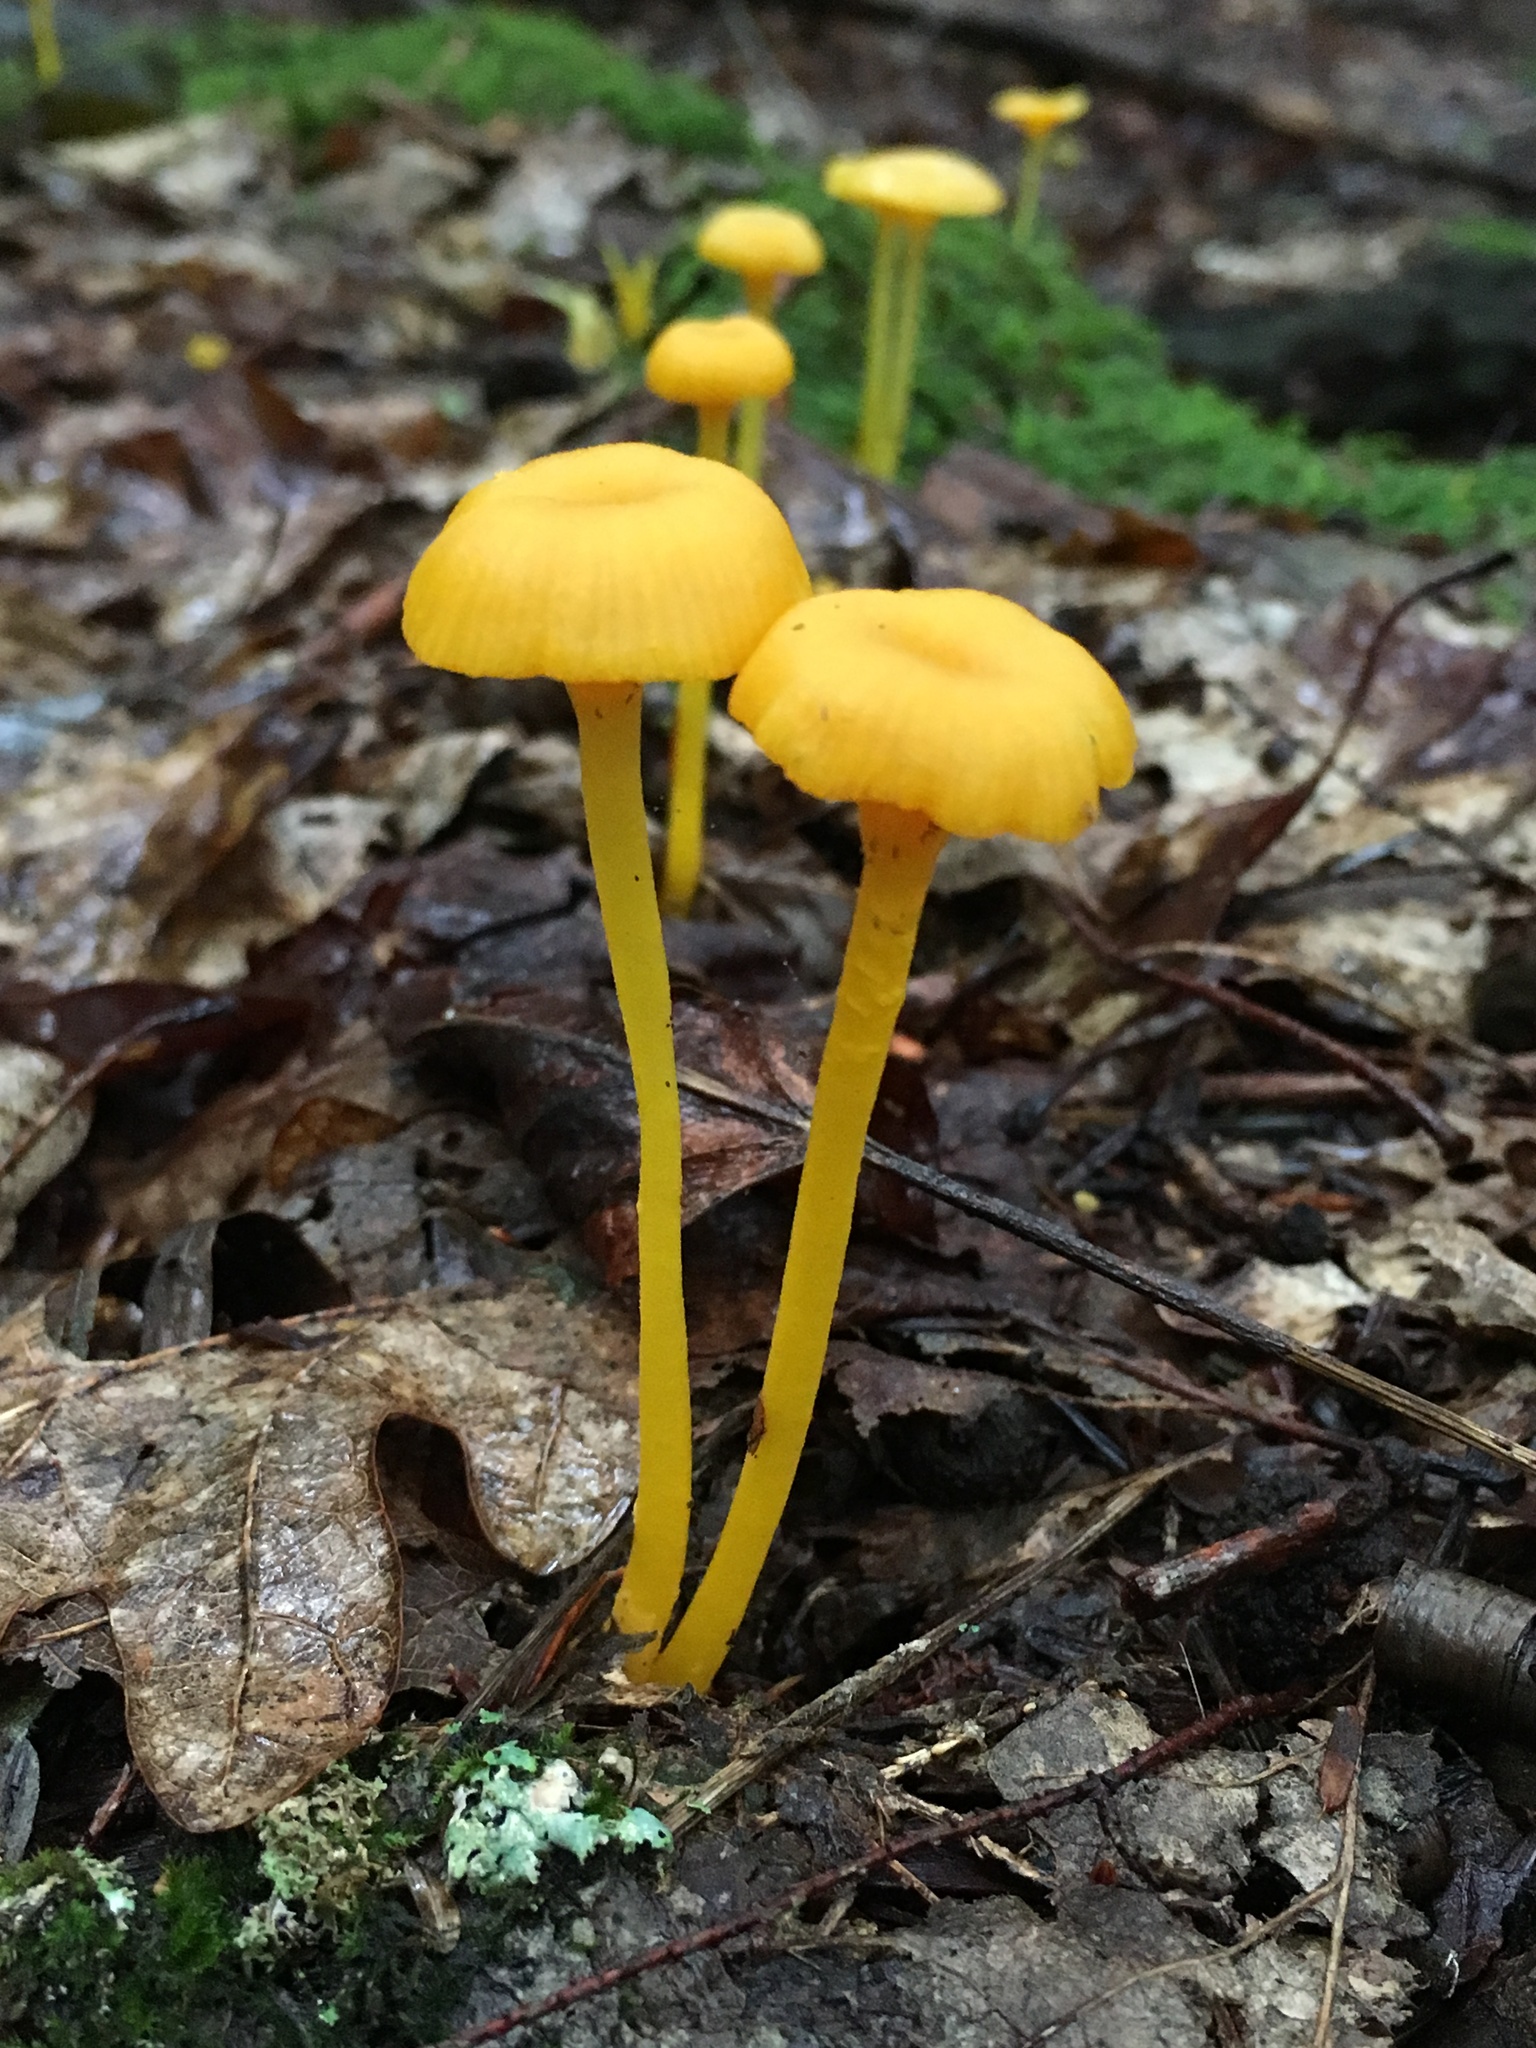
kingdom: Fungi
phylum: Basidiomycota
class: Agaricomycetes
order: Agaricales
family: Hygrophoraceae
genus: Gloioxanthomyces
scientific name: Gloioxanthomyces nitidus
